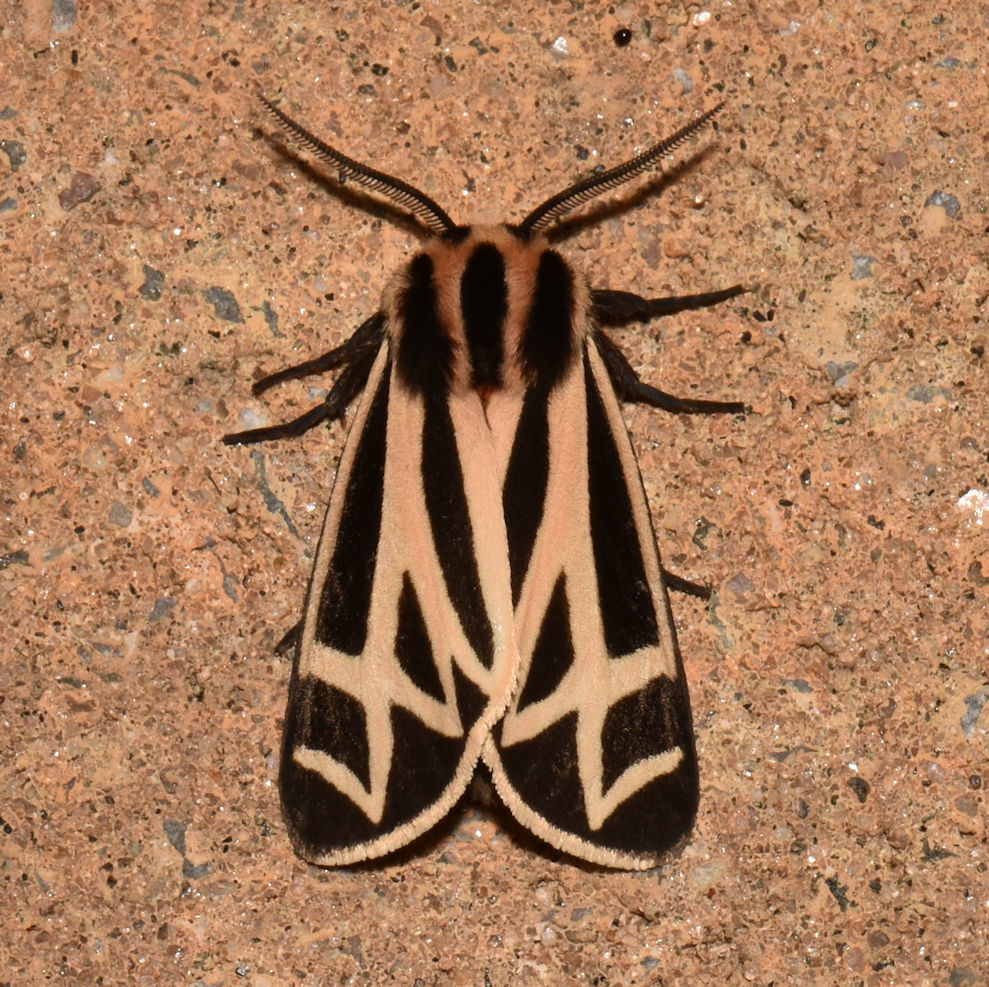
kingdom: Animalia
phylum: Arthropoda
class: Insecta
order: Lepidoptera
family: Erebidae
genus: Apantesis
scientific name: Apantesis phalerata
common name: Harnessed tiger moth
